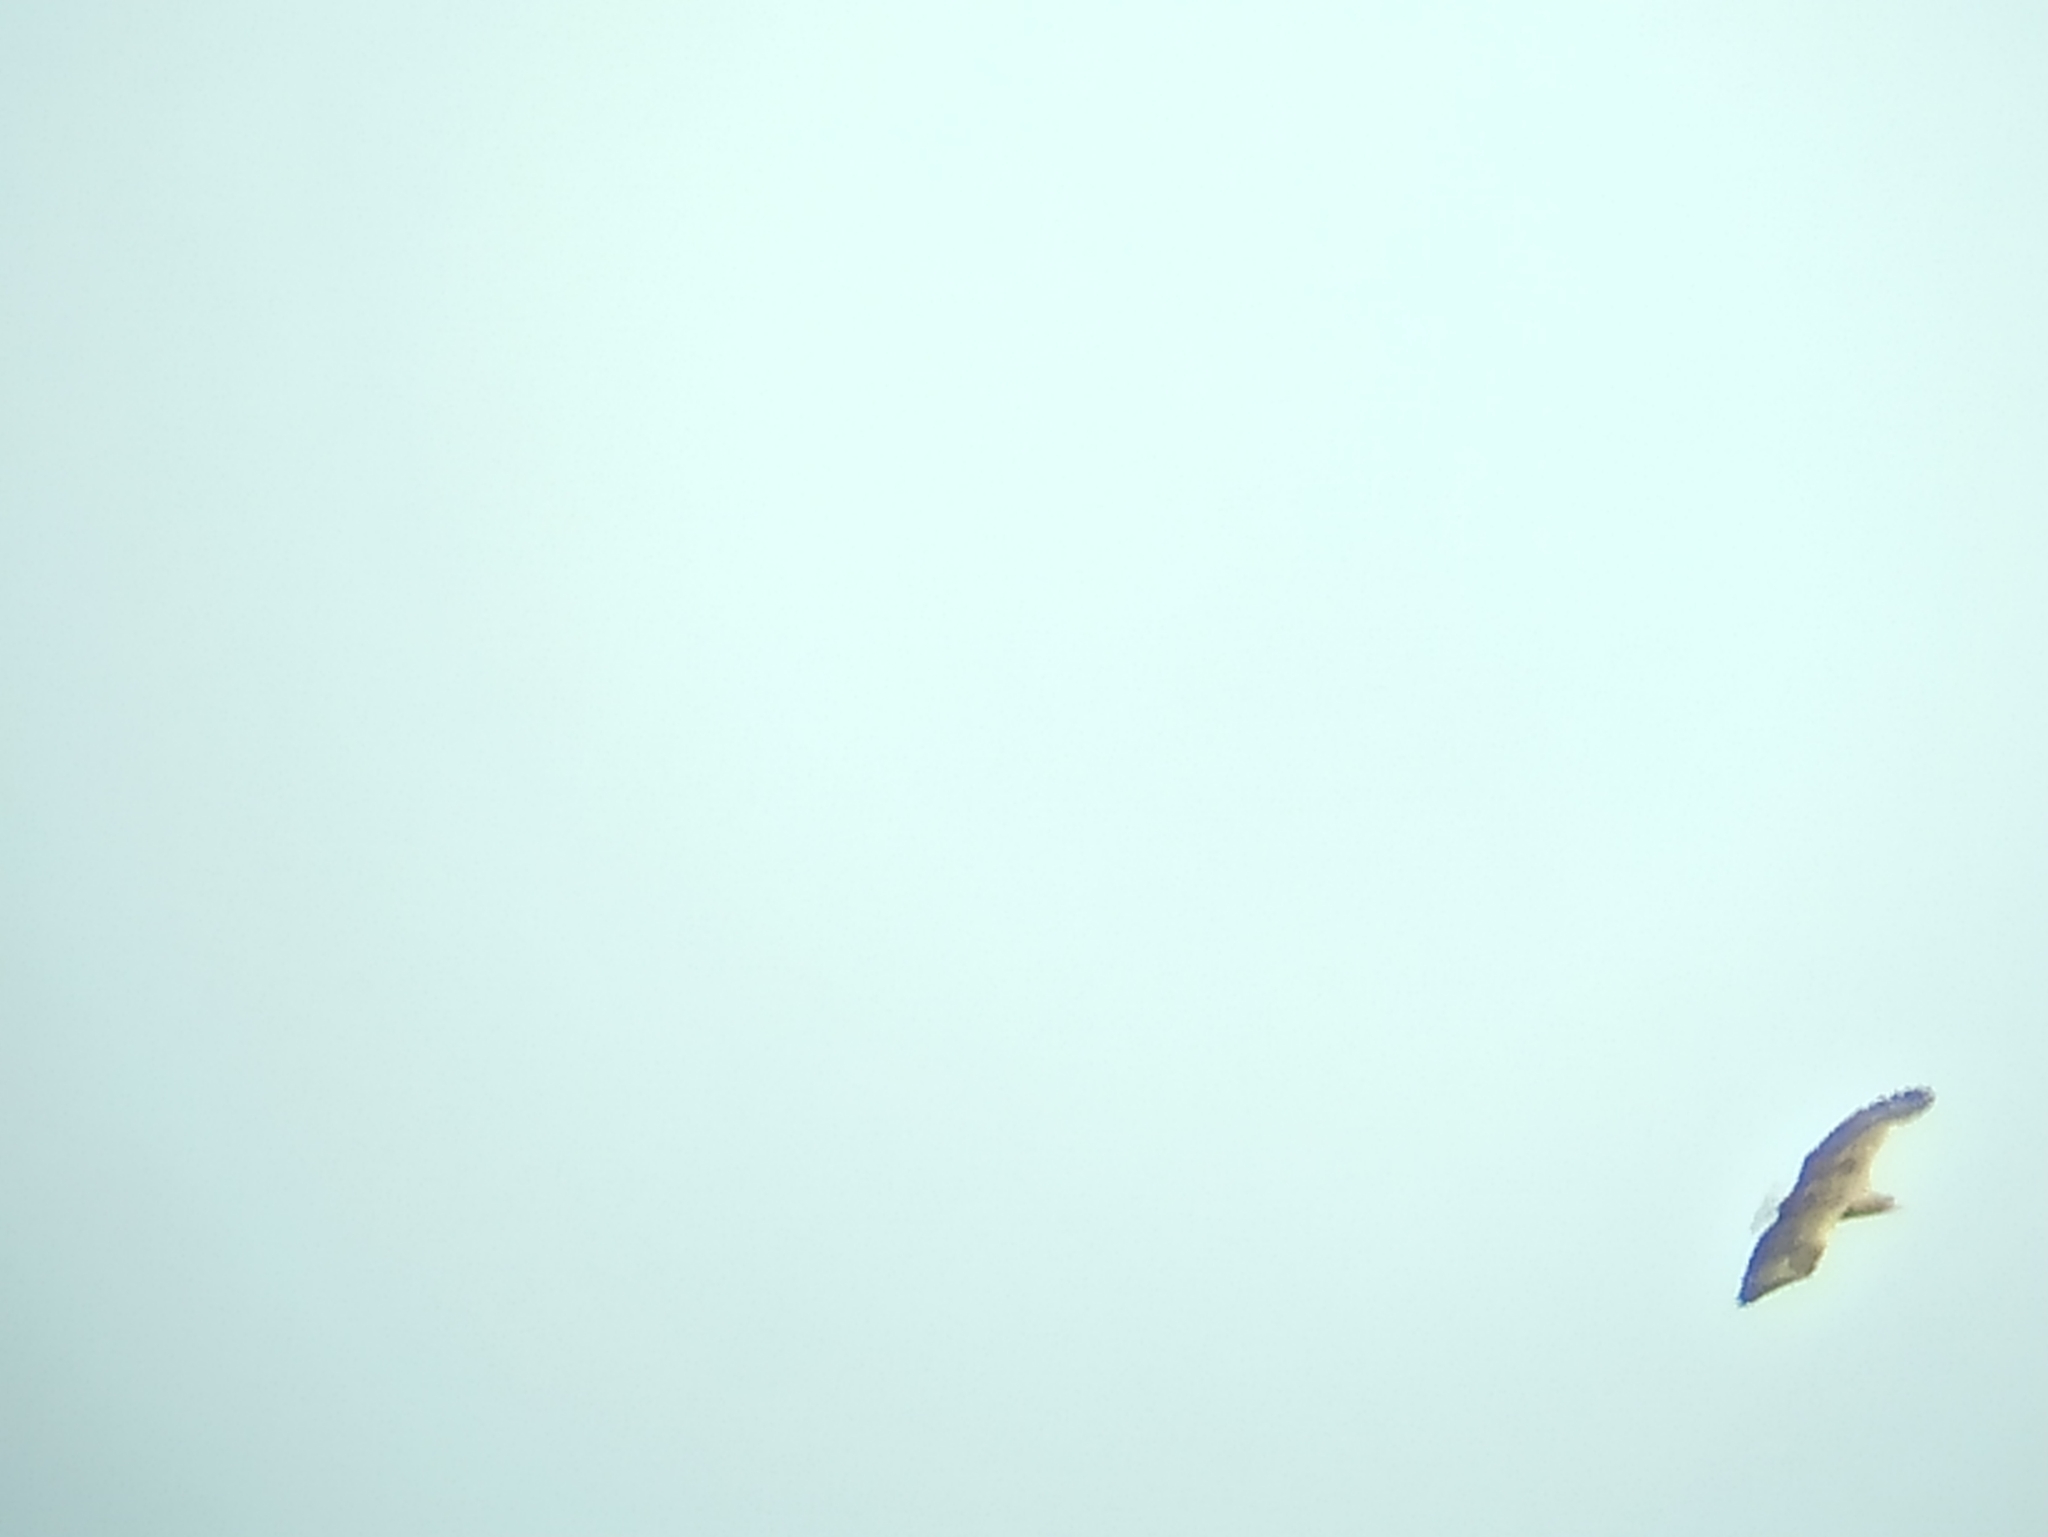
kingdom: Animalia
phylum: Chordata
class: Aves
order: Accipitriformes
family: Accipitridae
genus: Haliaeetus
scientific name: Haliaeetus albicilla
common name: White-tailed eagle
